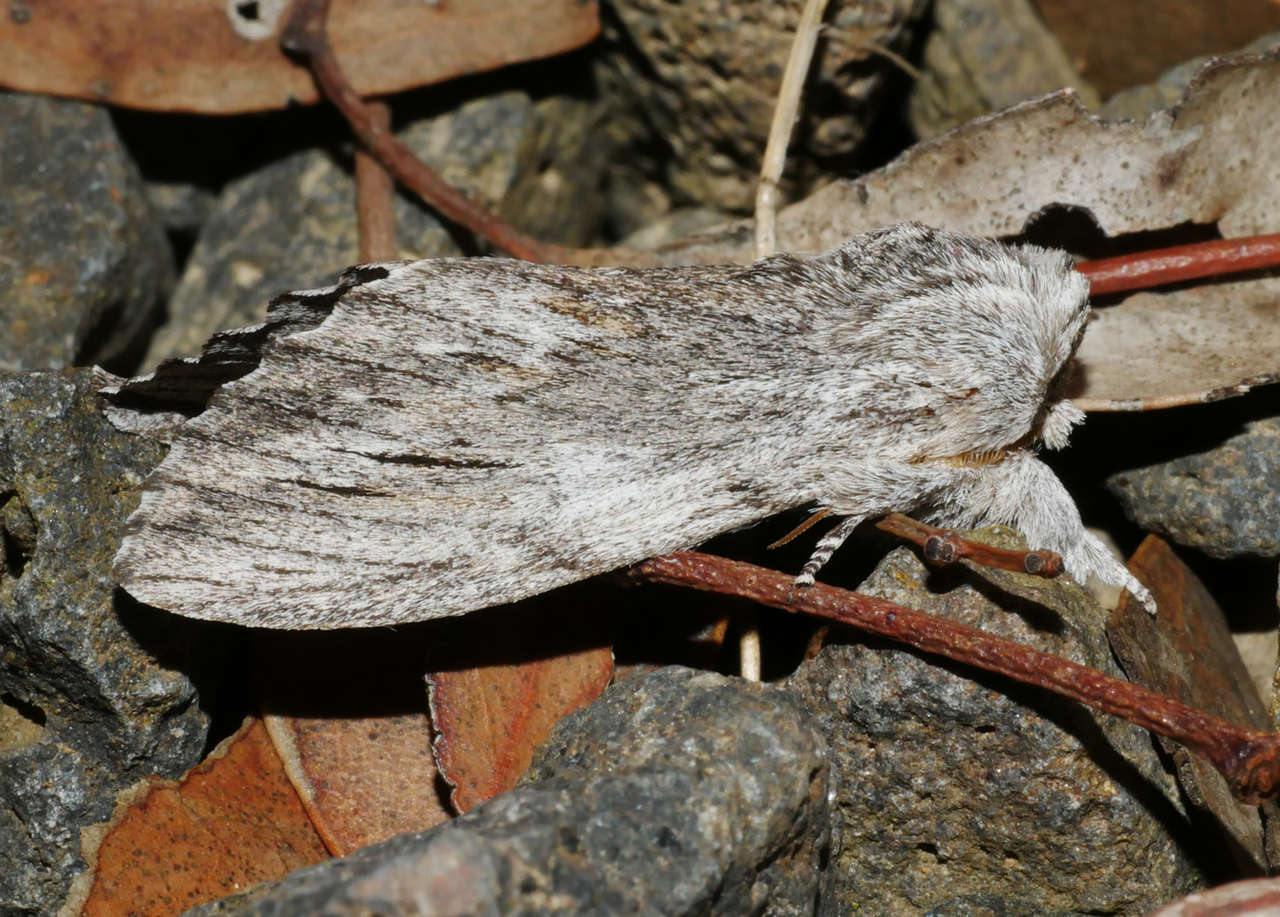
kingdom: Animalia
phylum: Arthropoda
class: Insecta
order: Lepidoptera
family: Notodontidae
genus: Destolmia
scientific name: Destolmia lineata
